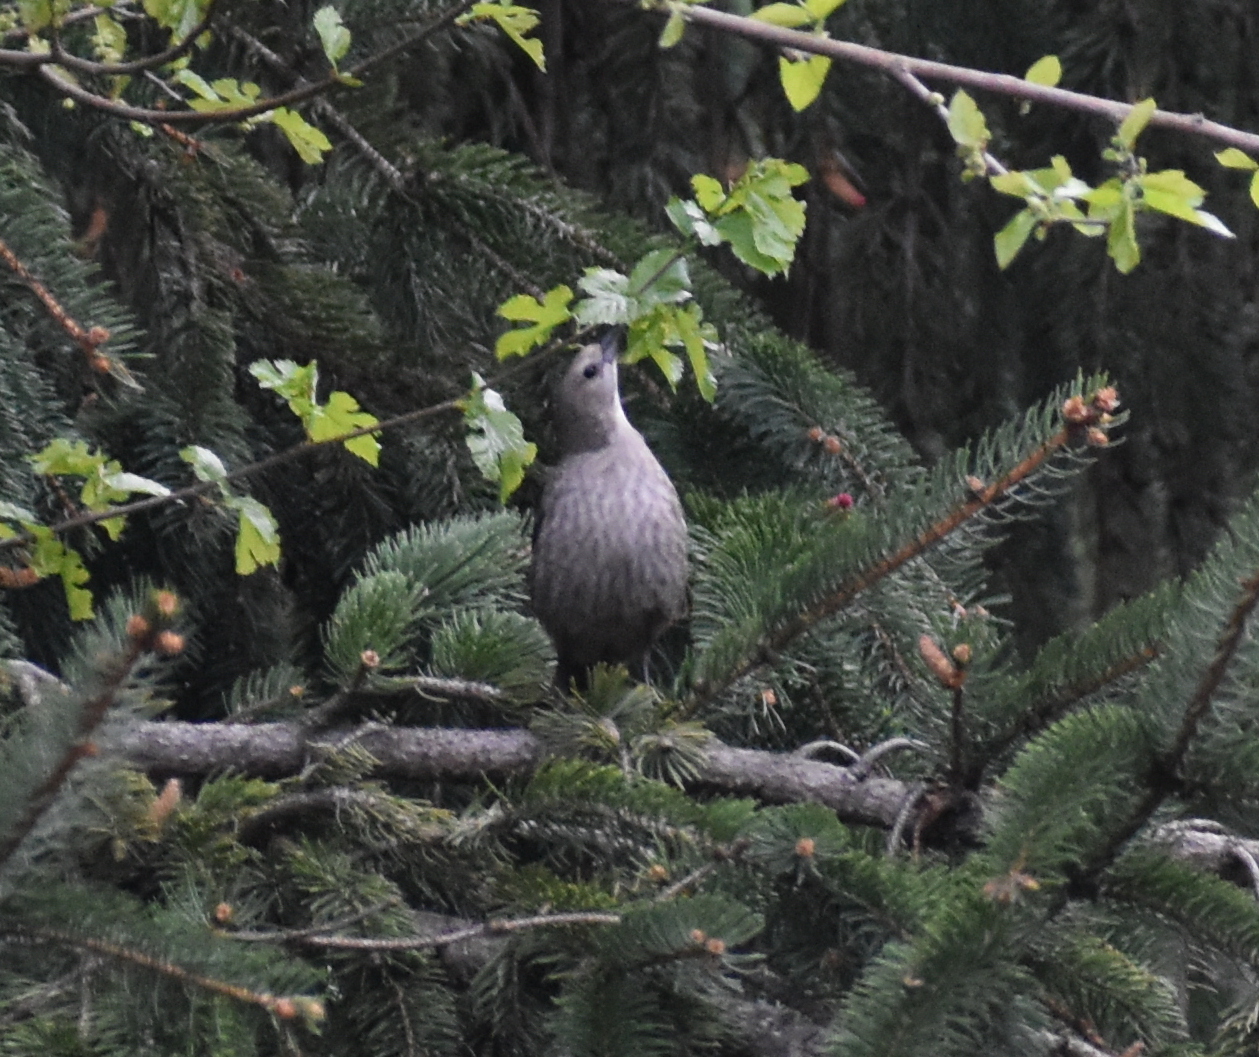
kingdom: Animalia
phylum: Chordata
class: Aves
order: Passeriformes
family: Icteridae
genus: Molothrus
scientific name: Molothrus ater
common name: Brown-headed cowbird
